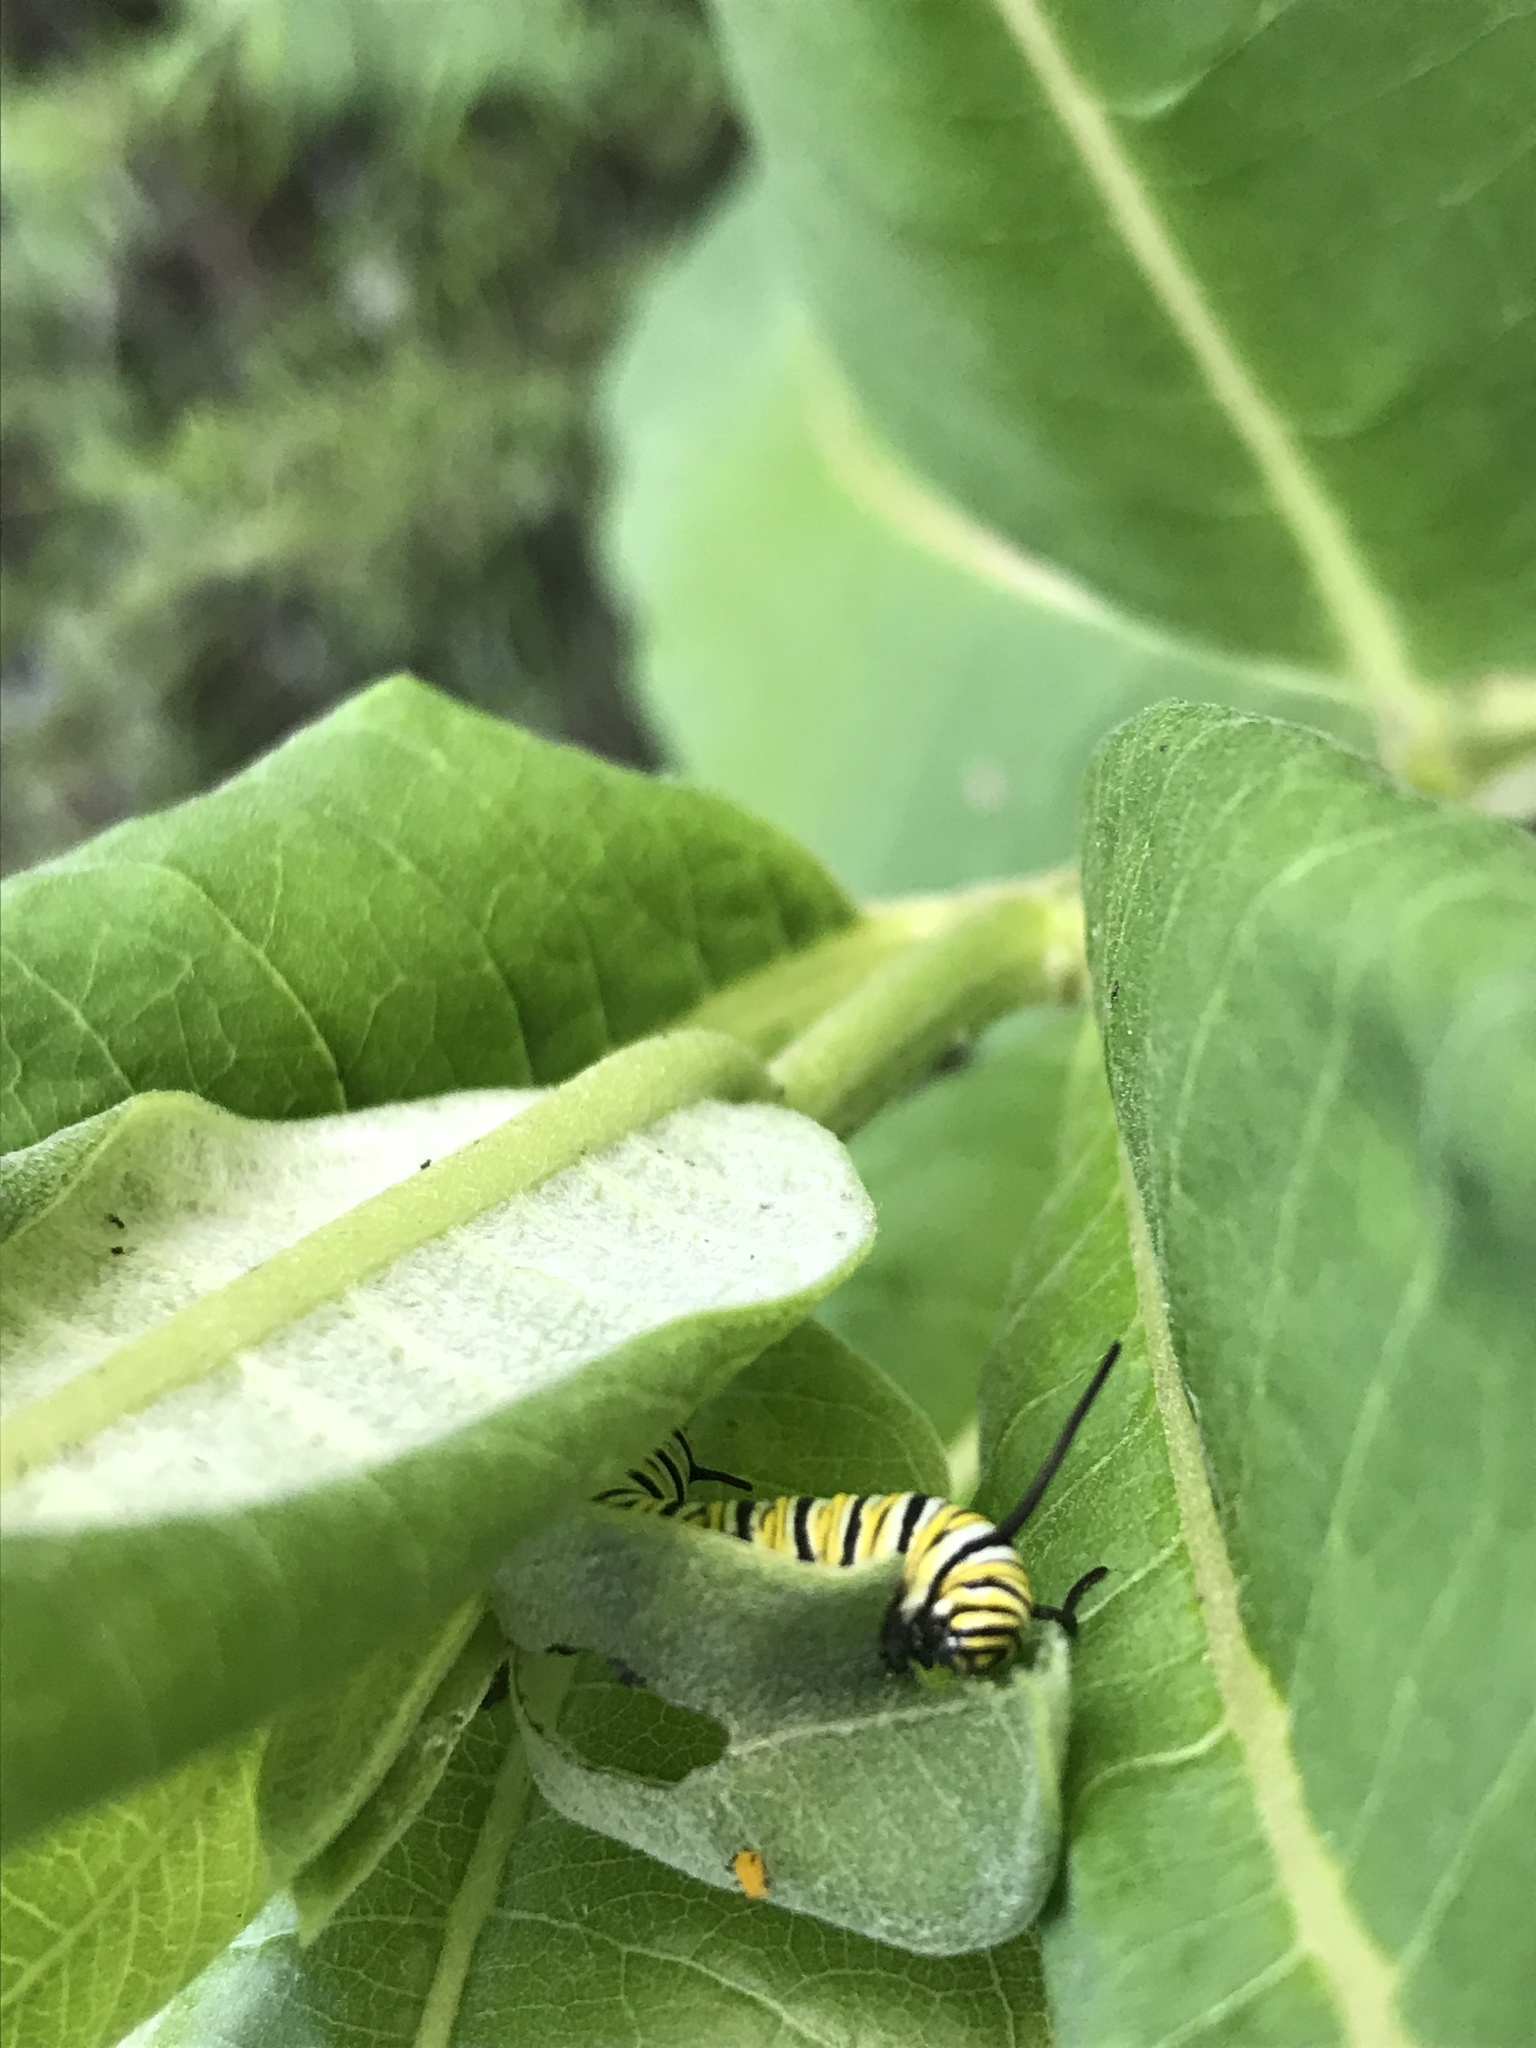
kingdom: Animalia
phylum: Arthropoda
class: Insecta
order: Lepidoptera
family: Nymphalidae
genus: Danaus
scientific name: Danaus plexippus
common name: Monarch
